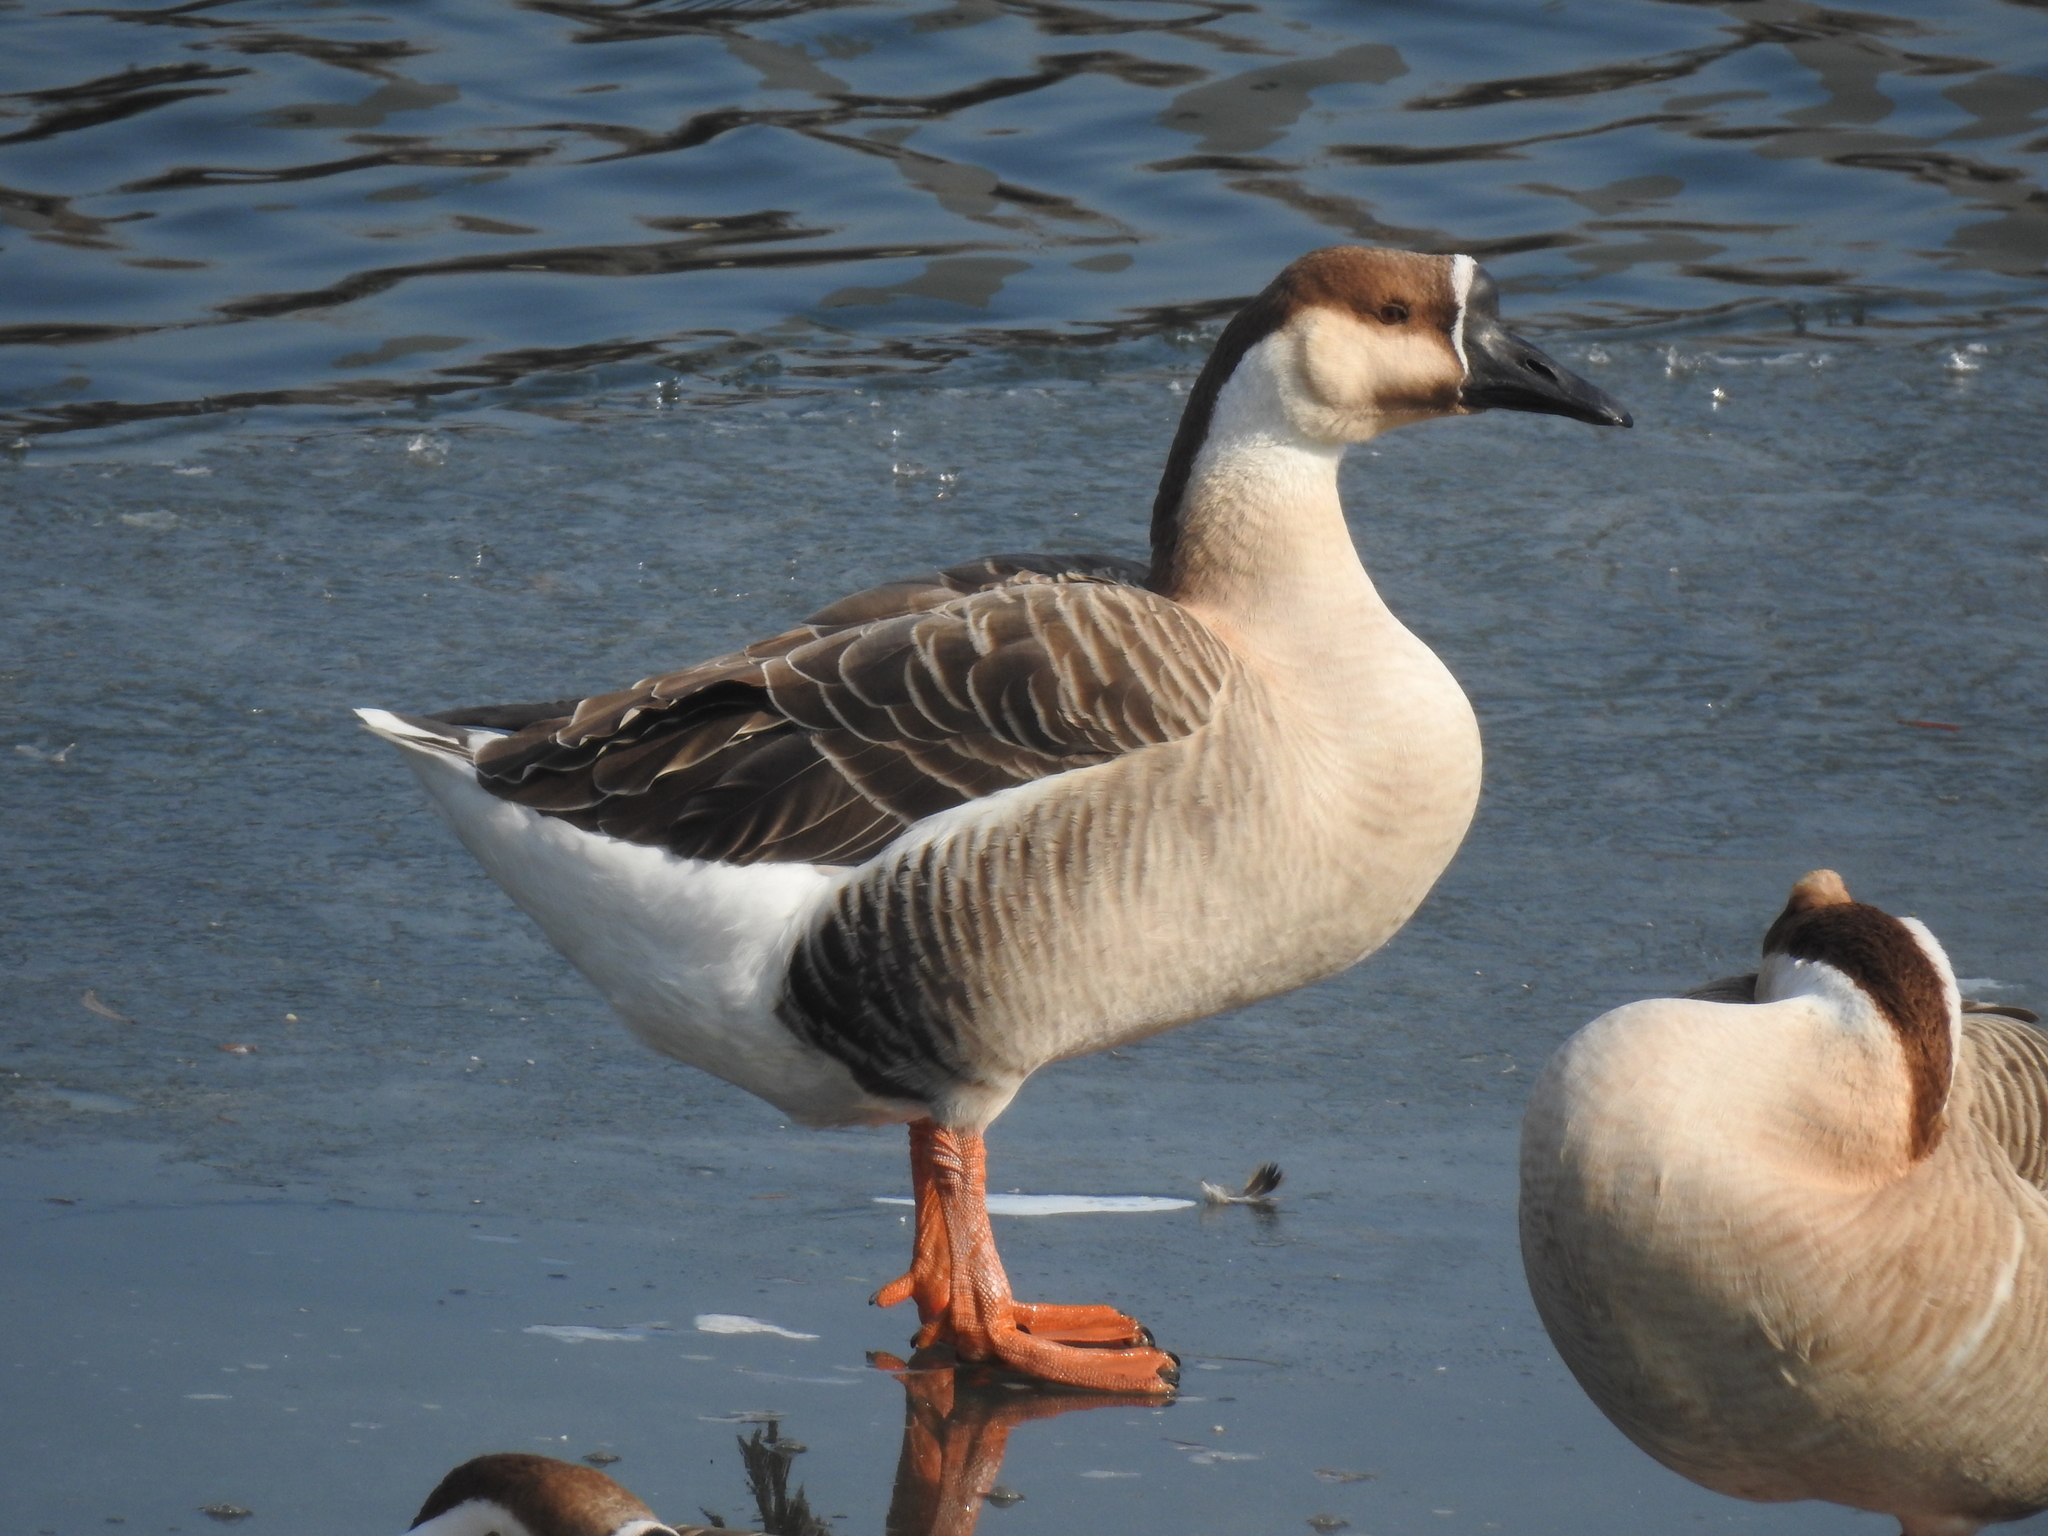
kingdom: Animalia
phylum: Chordata
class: Aves
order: Anseriformes
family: Anatidae
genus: Anser
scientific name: Anser cygnoides
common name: Swan goose
